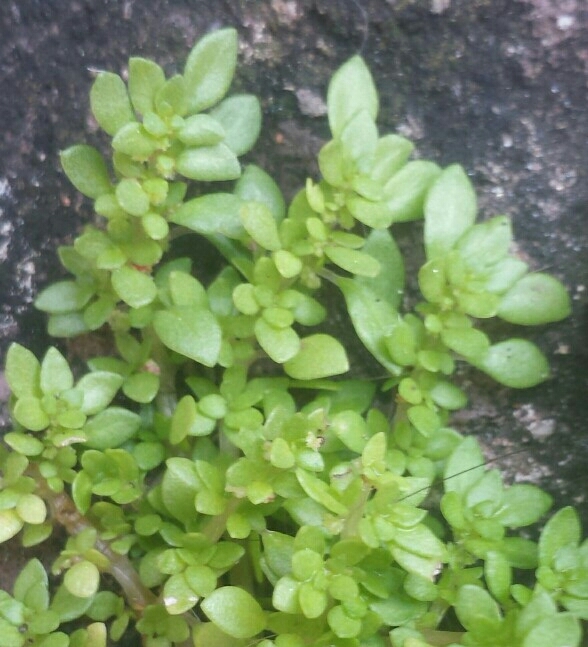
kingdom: Plantae
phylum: Tracheophyta
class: Magnoliopsida
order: Rosales
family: Urticaceae
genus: Pilea
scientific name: Pilea microphylla
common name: Artillery-plant
